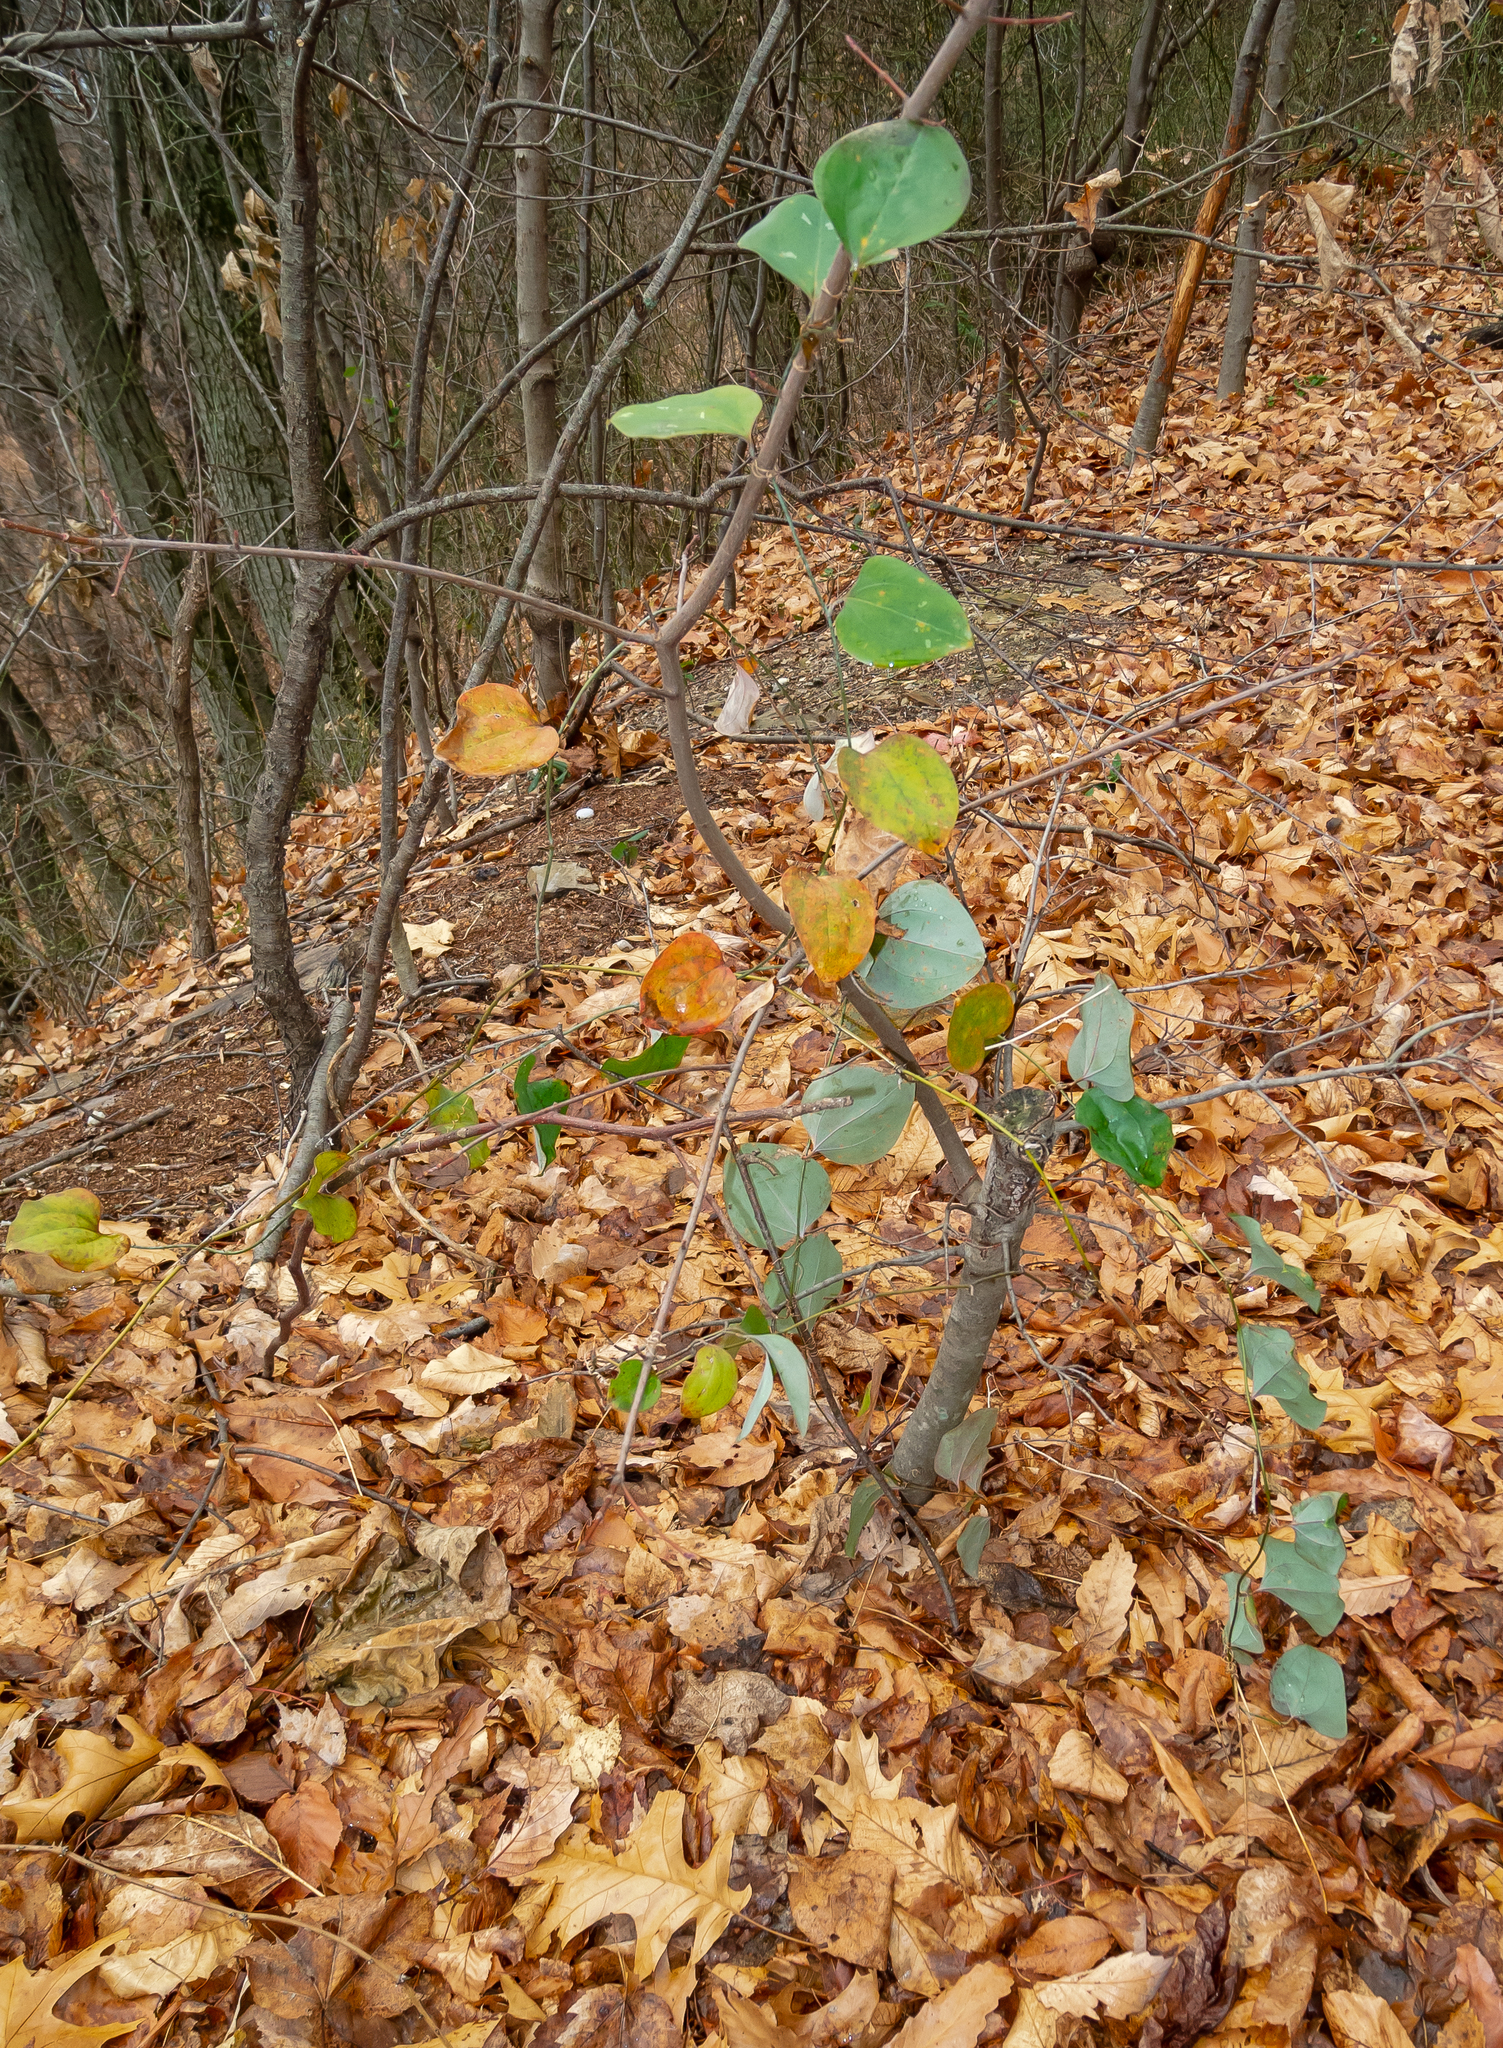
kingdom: Plantae
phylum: Tracheophyta
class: Liliopsida
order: Liliales
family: Smilacaceae
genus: Smilax
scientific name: Smilax glauca
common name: Cat greenbrier
